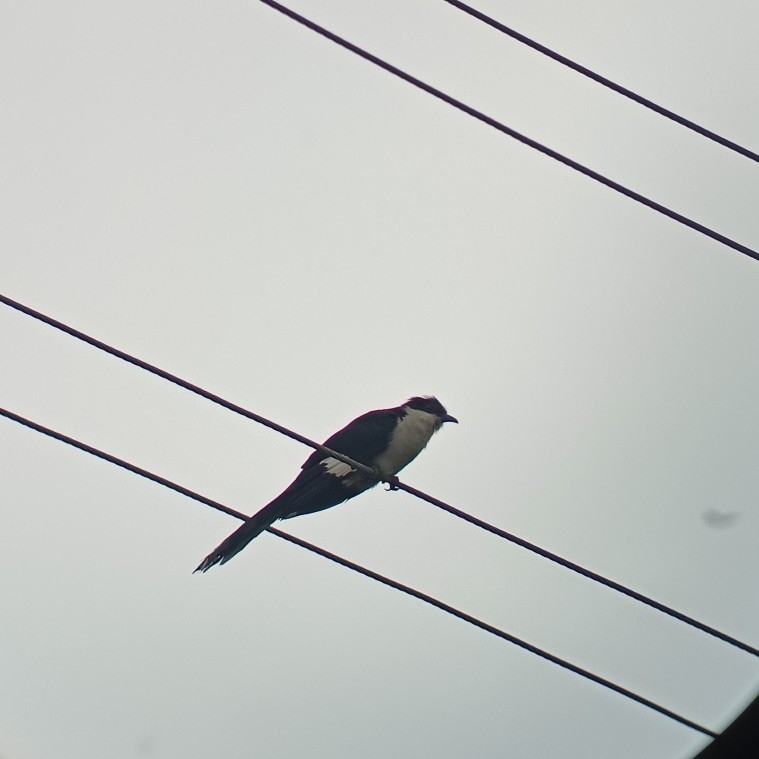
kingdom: Animalia
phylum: Chordata
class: Aves
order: Cuculiformes
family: Cuculidae
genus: Clamator
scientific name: Clamator jacobinus
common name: Jacobin cuckoo
